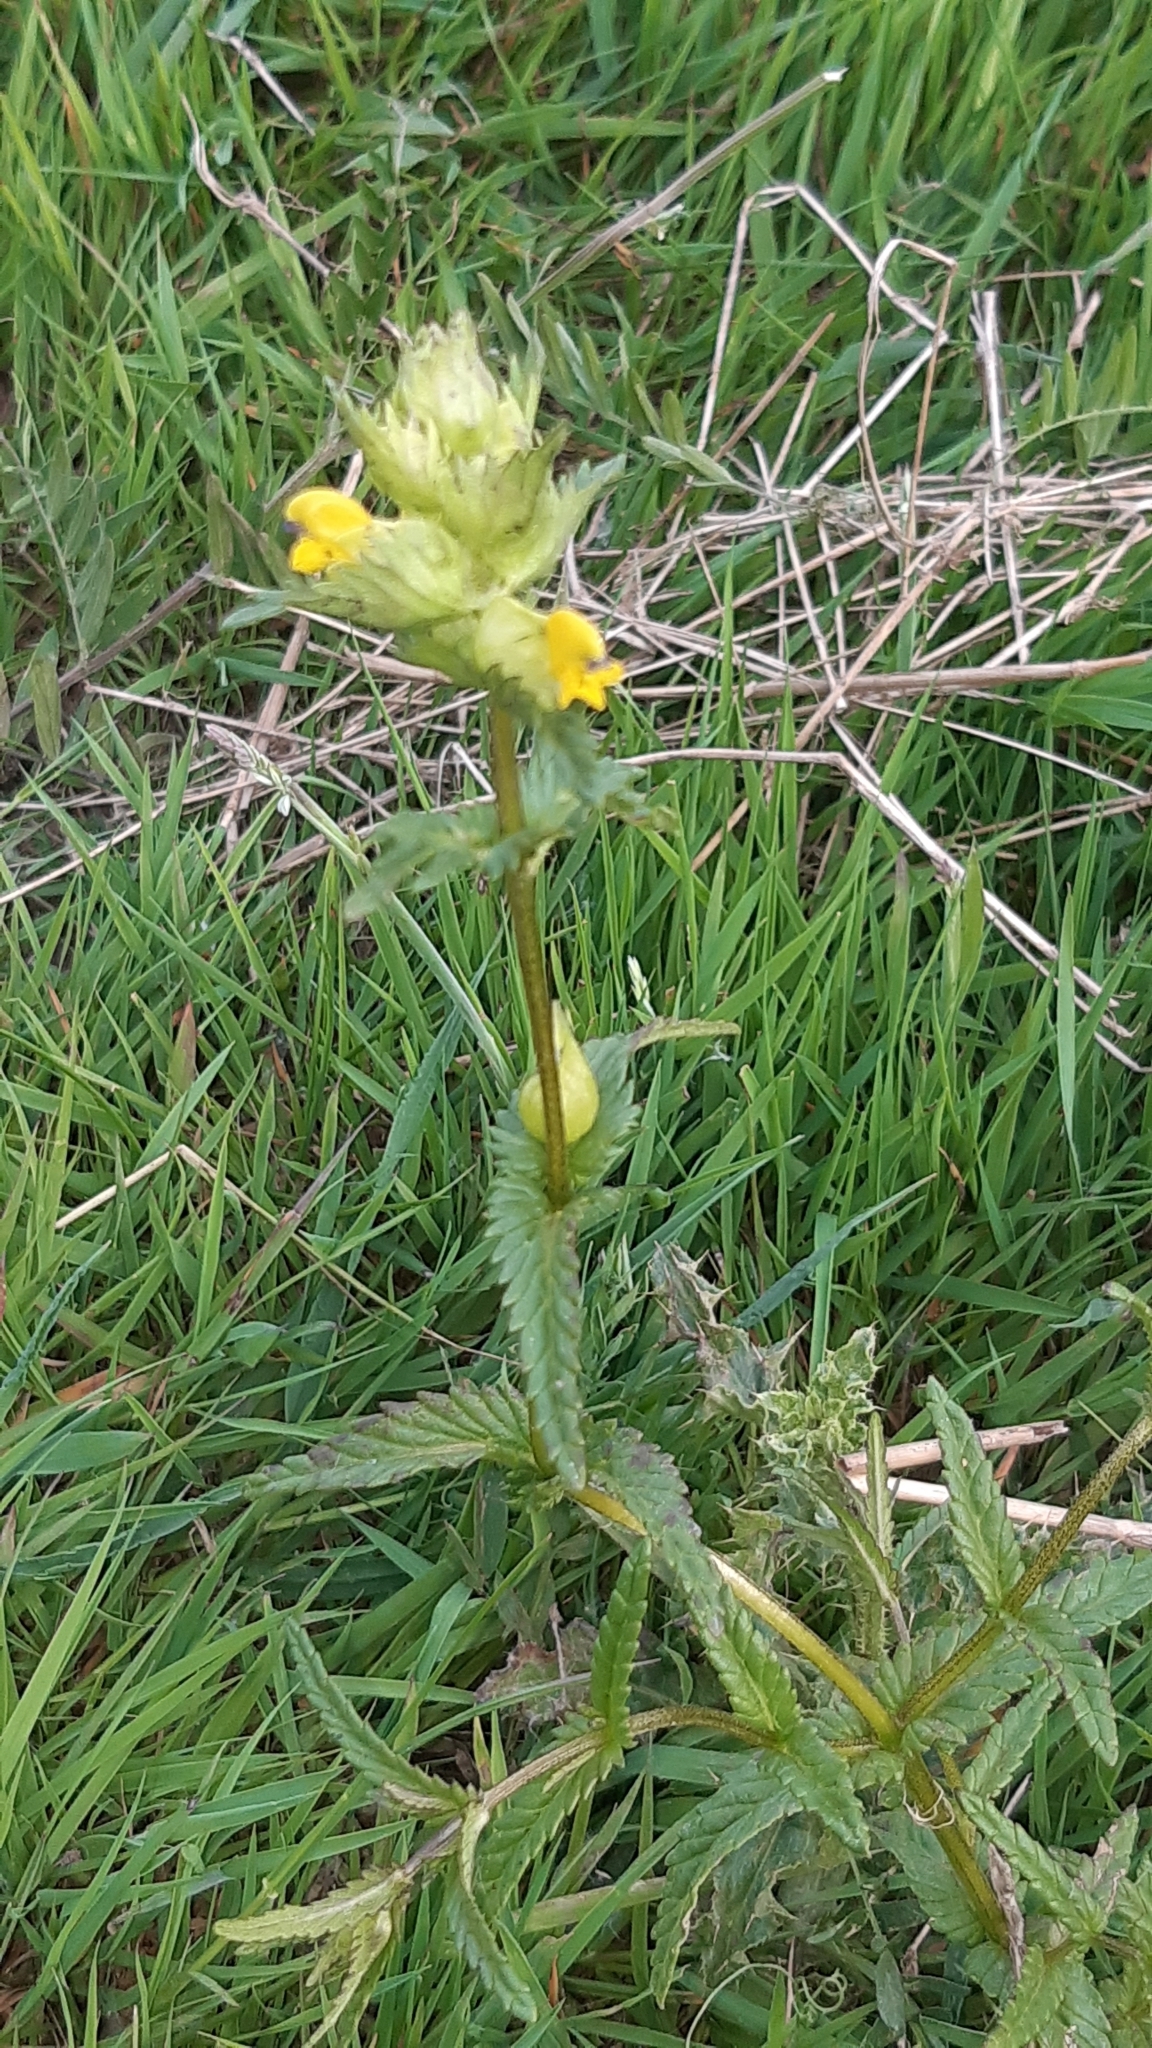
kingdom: Plantae
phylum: Tracheophyta
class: Magnoliopsida
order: Lamiales
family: Orobanchaceae
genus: Rhinanthus
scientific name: Rhinanthus minor
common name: Yellow-rattle
